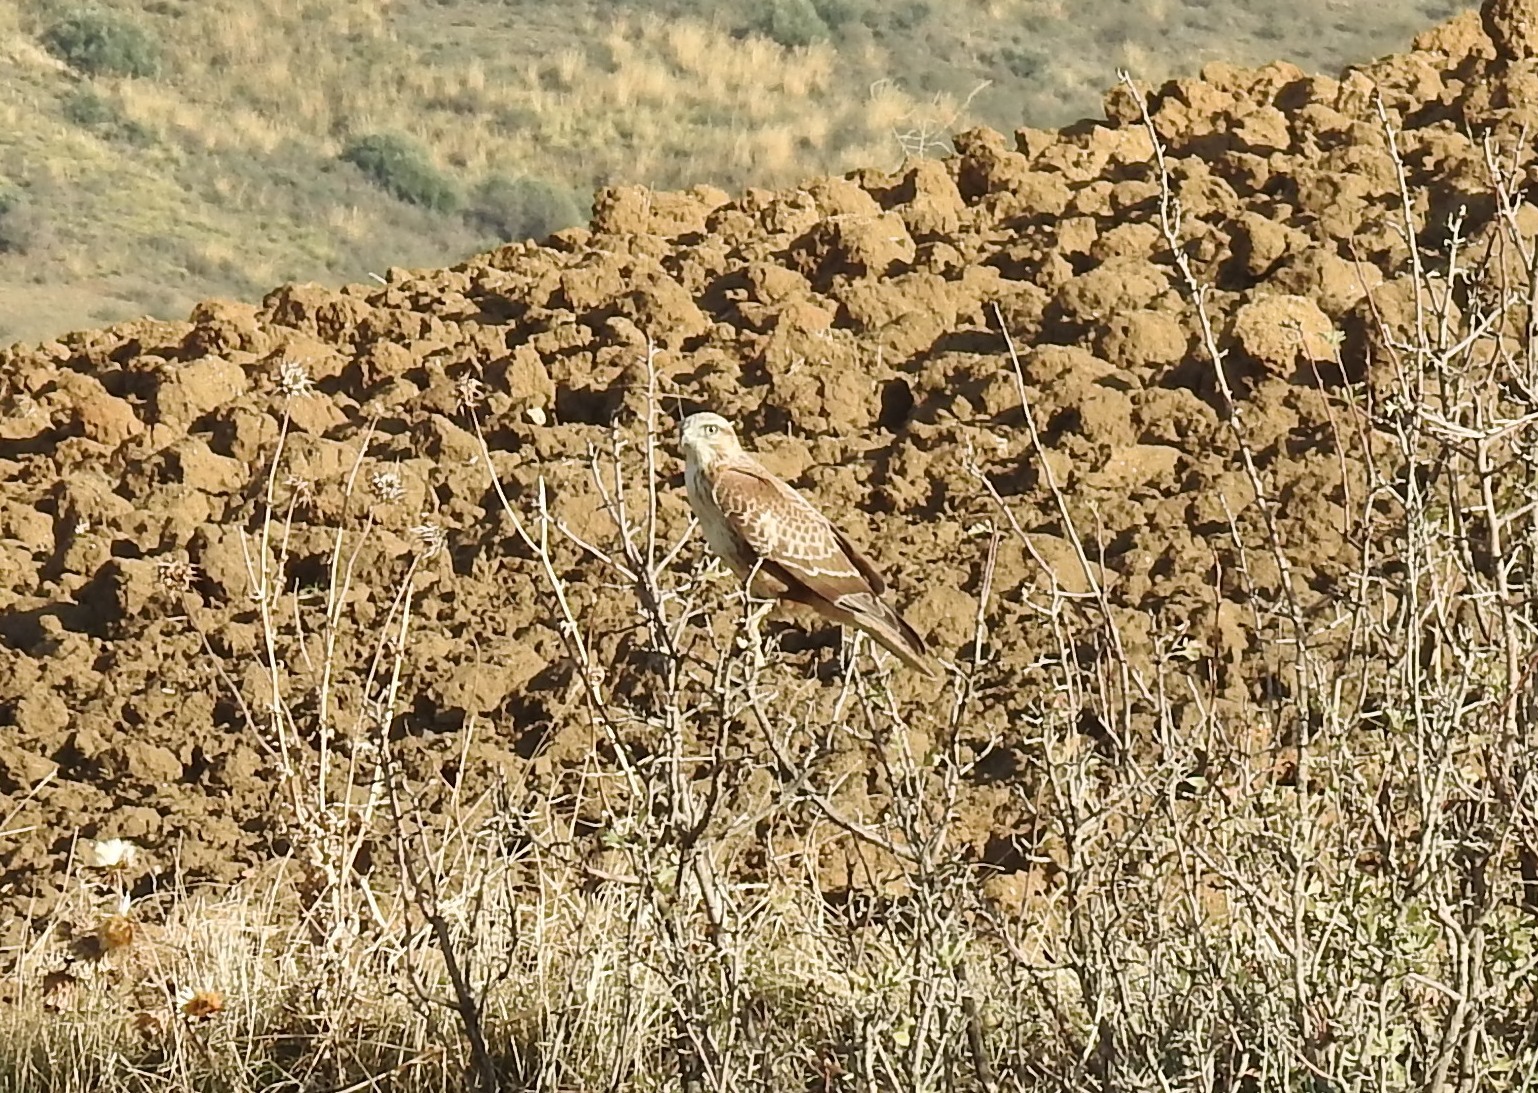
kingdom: Animalia
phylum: Chordata
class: Aves
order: Accipitriformes
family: Accipitridae
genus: Buteo
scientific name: Buteo rufinus
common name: Long-legged buzzard
